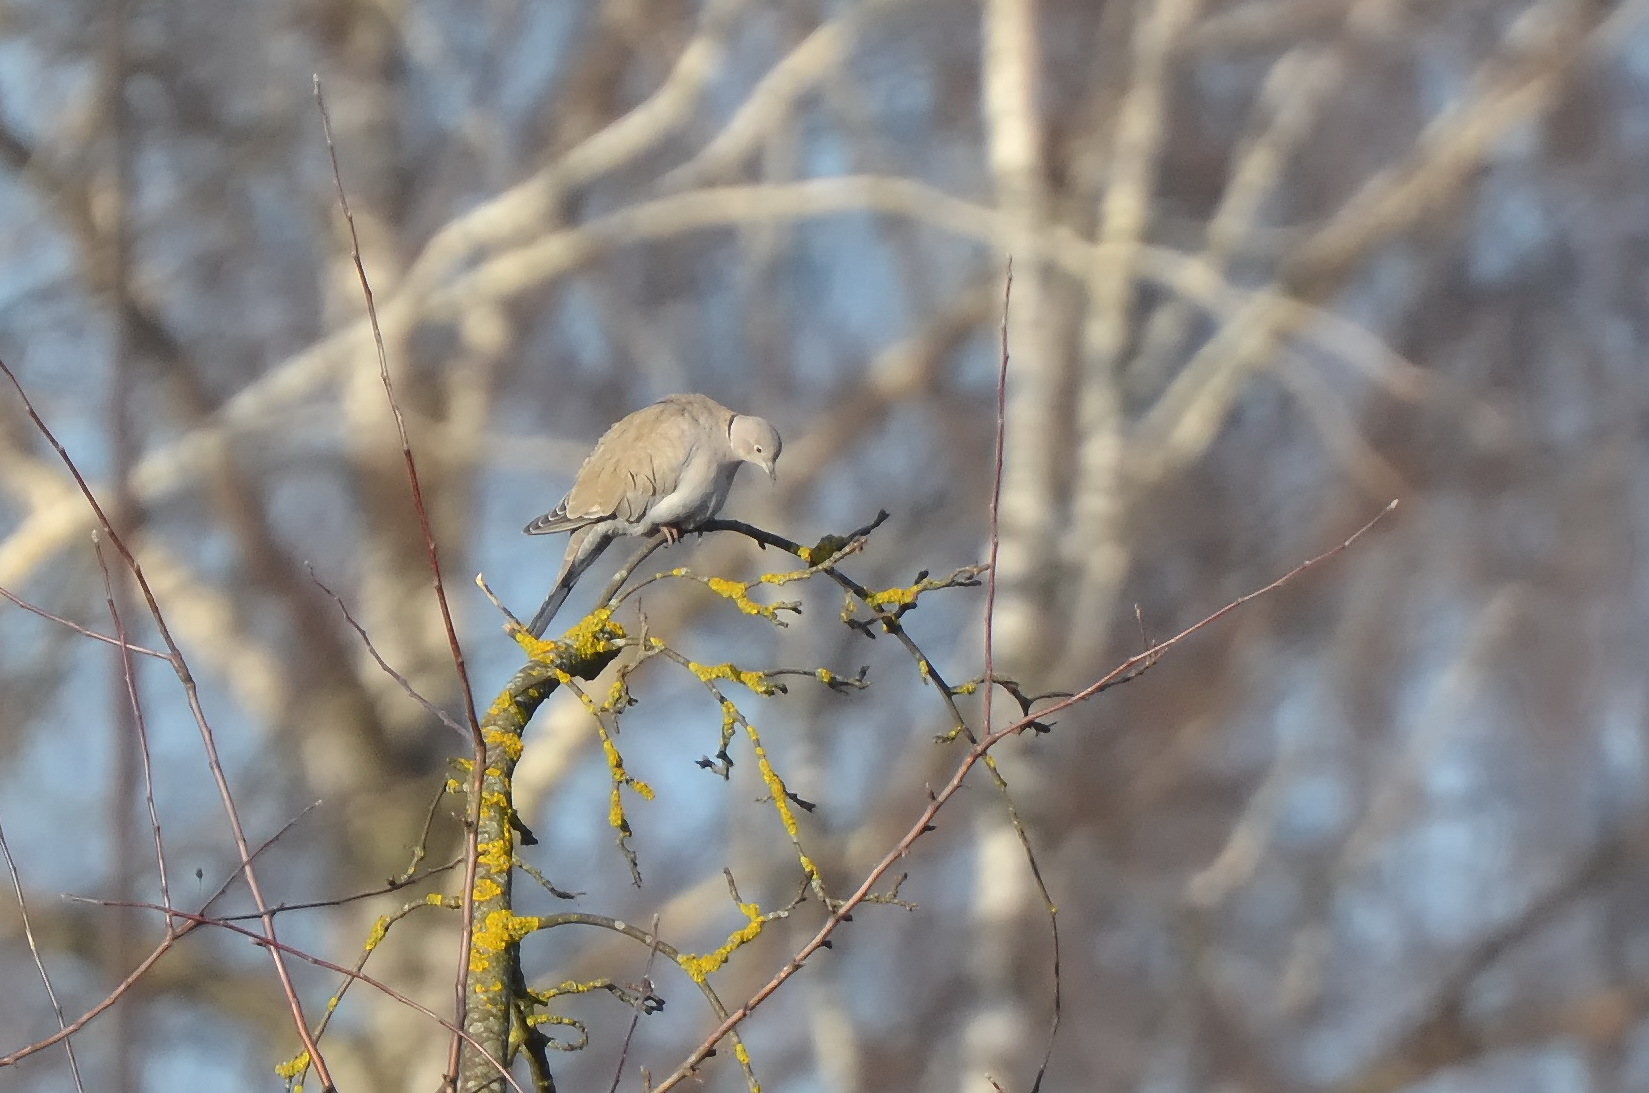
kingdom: Animalia
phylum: Chordata
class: Aves
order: Columbiformes
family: Columbidae
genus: Streptopelia
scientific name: Streptopelia decaocto
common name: Eurasian collared dove
